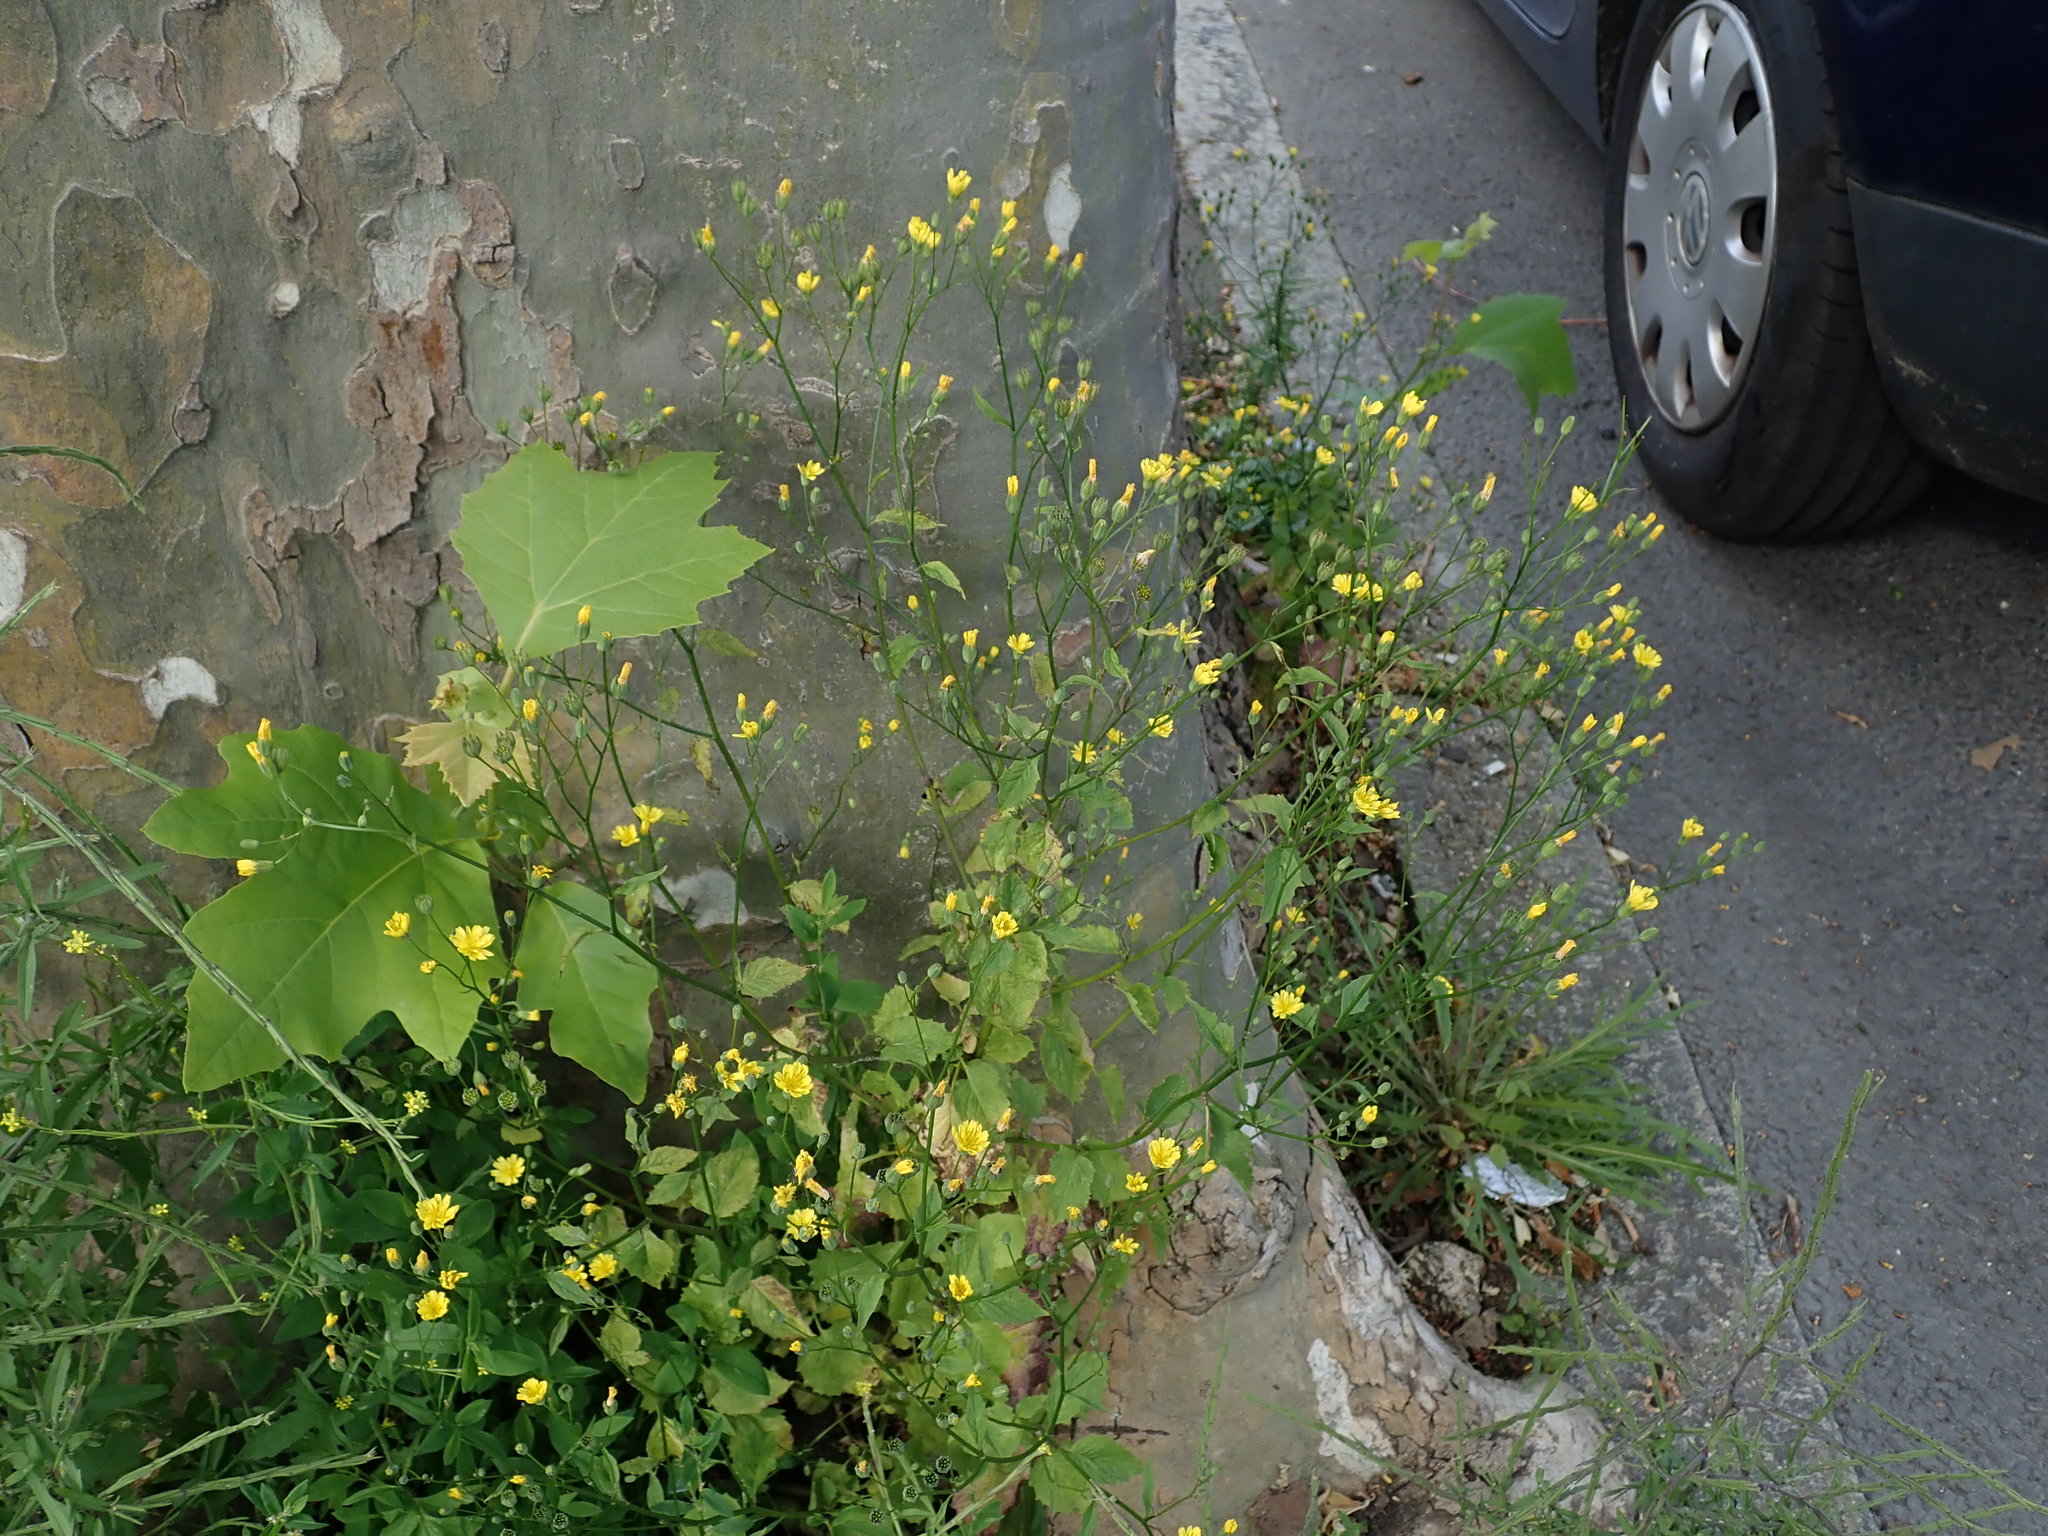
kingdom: Plantae
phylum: Tracheophyta
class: Magnoliopsida
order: Asterales
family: Asteraceae
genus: Lapsana
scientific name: Lapsana communis
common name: Nipplewort
